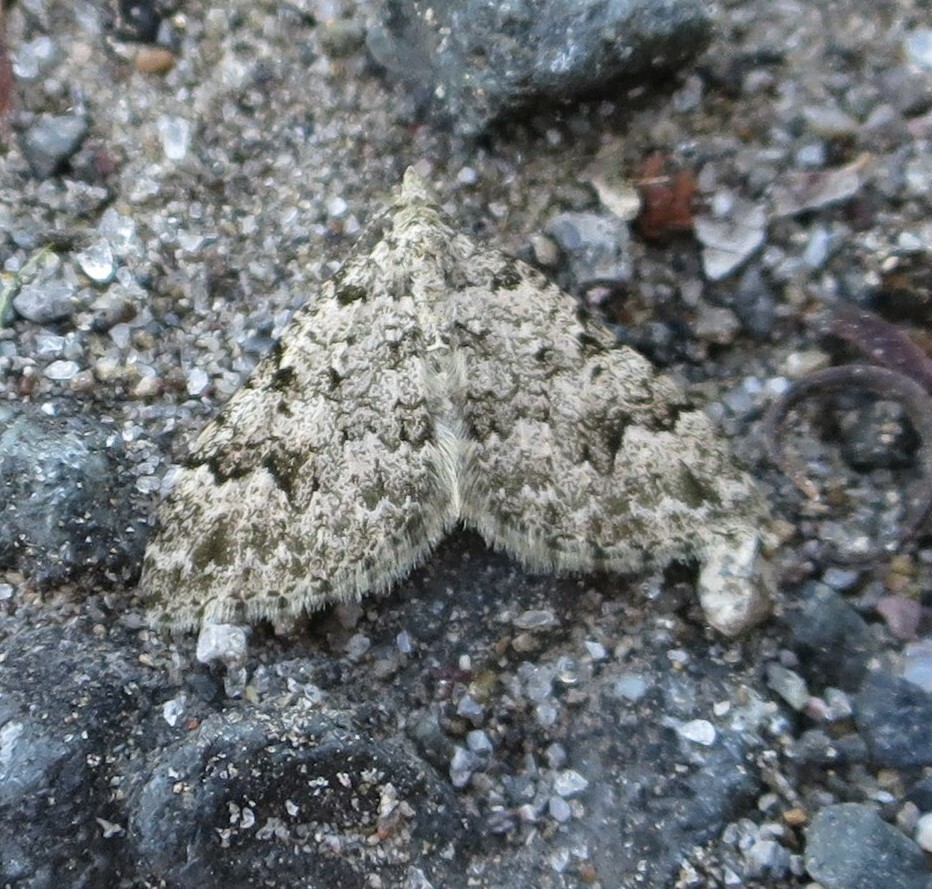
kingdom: Animalia
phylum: Arthropoda
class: Insecta
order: Lepidoptera
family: Geometridae
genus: Helastia
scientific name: Helastia cinerearia
